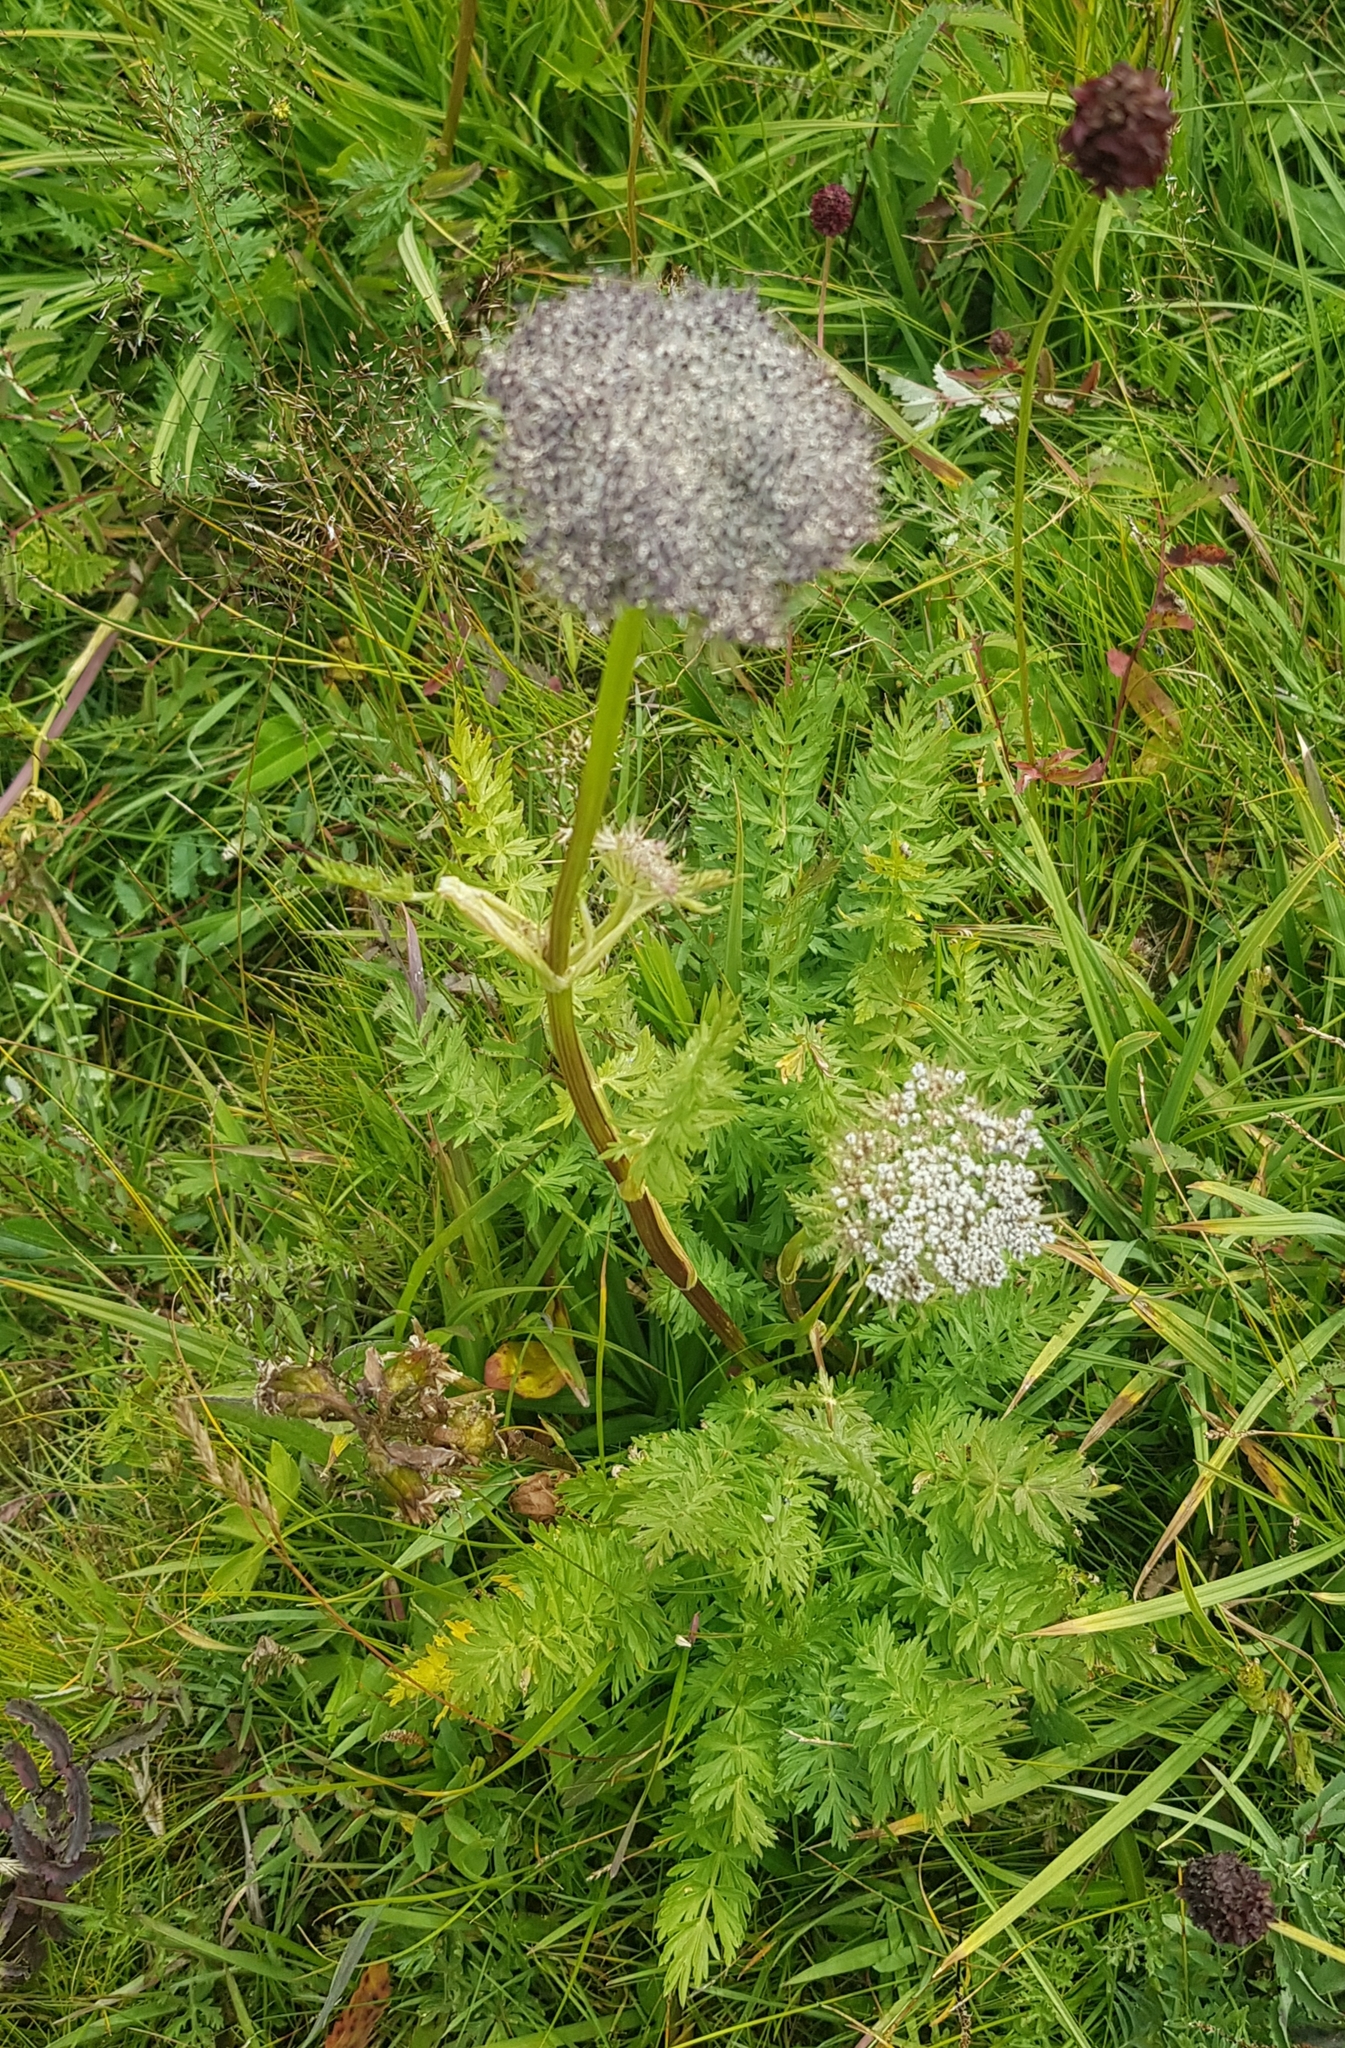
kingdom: Plantae
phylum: Tracheophyta
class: Magnoliopsida
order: Apiales
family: Apiaceae
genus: Seseli
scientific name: Seseli seseloides
